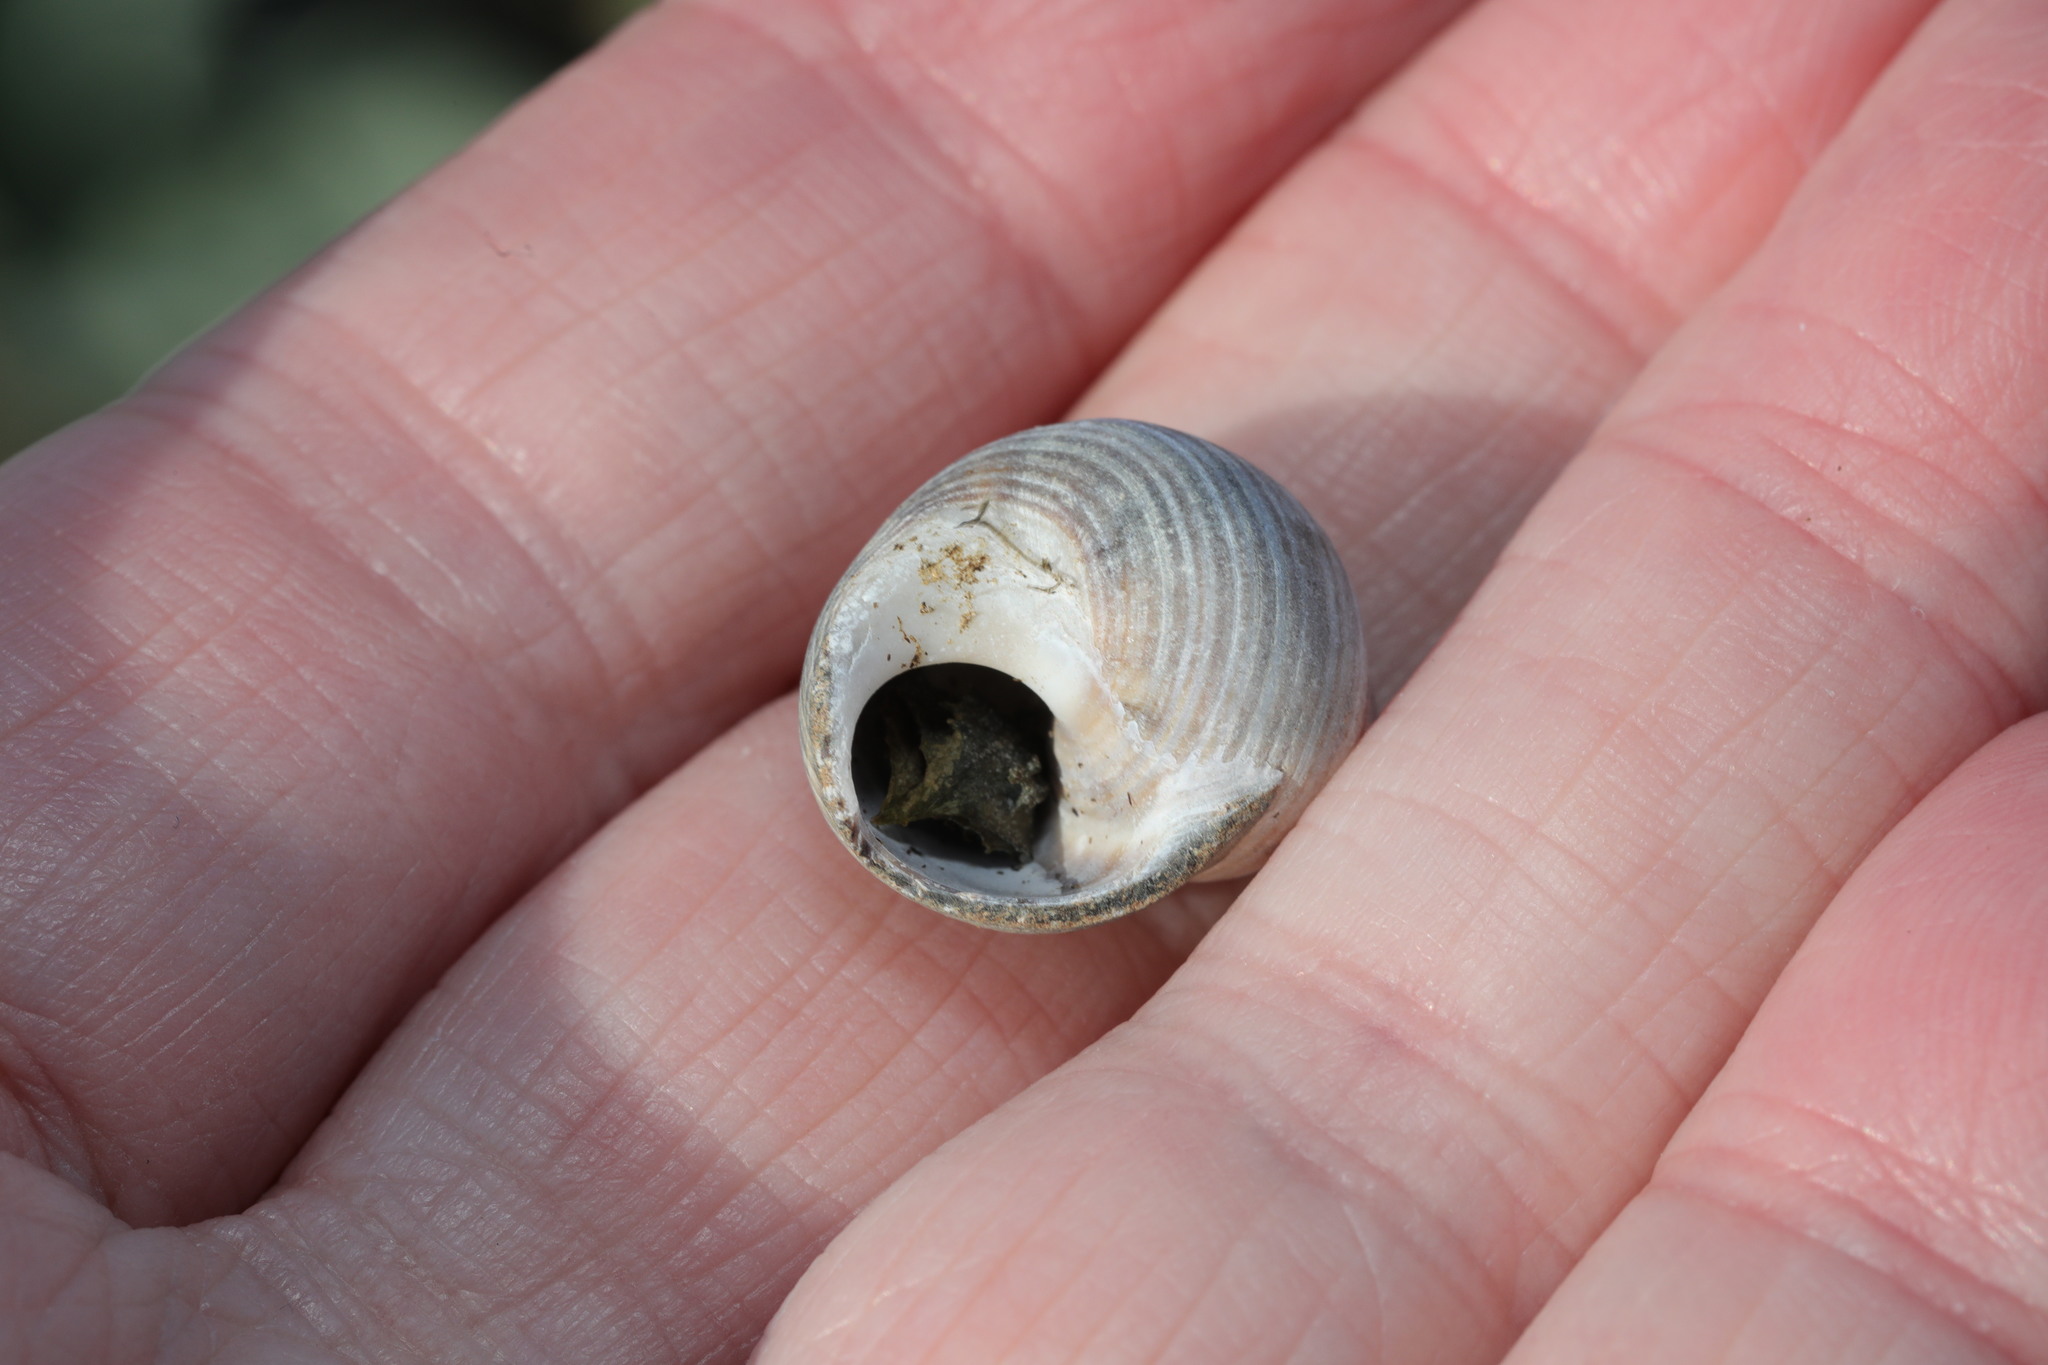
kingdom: Animalia
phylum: Mollusca
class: Gastropoda
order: Littorinimorpha
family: Littorinidae
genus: Littorina
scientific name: Littorina littorea
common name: Common periwinkle
